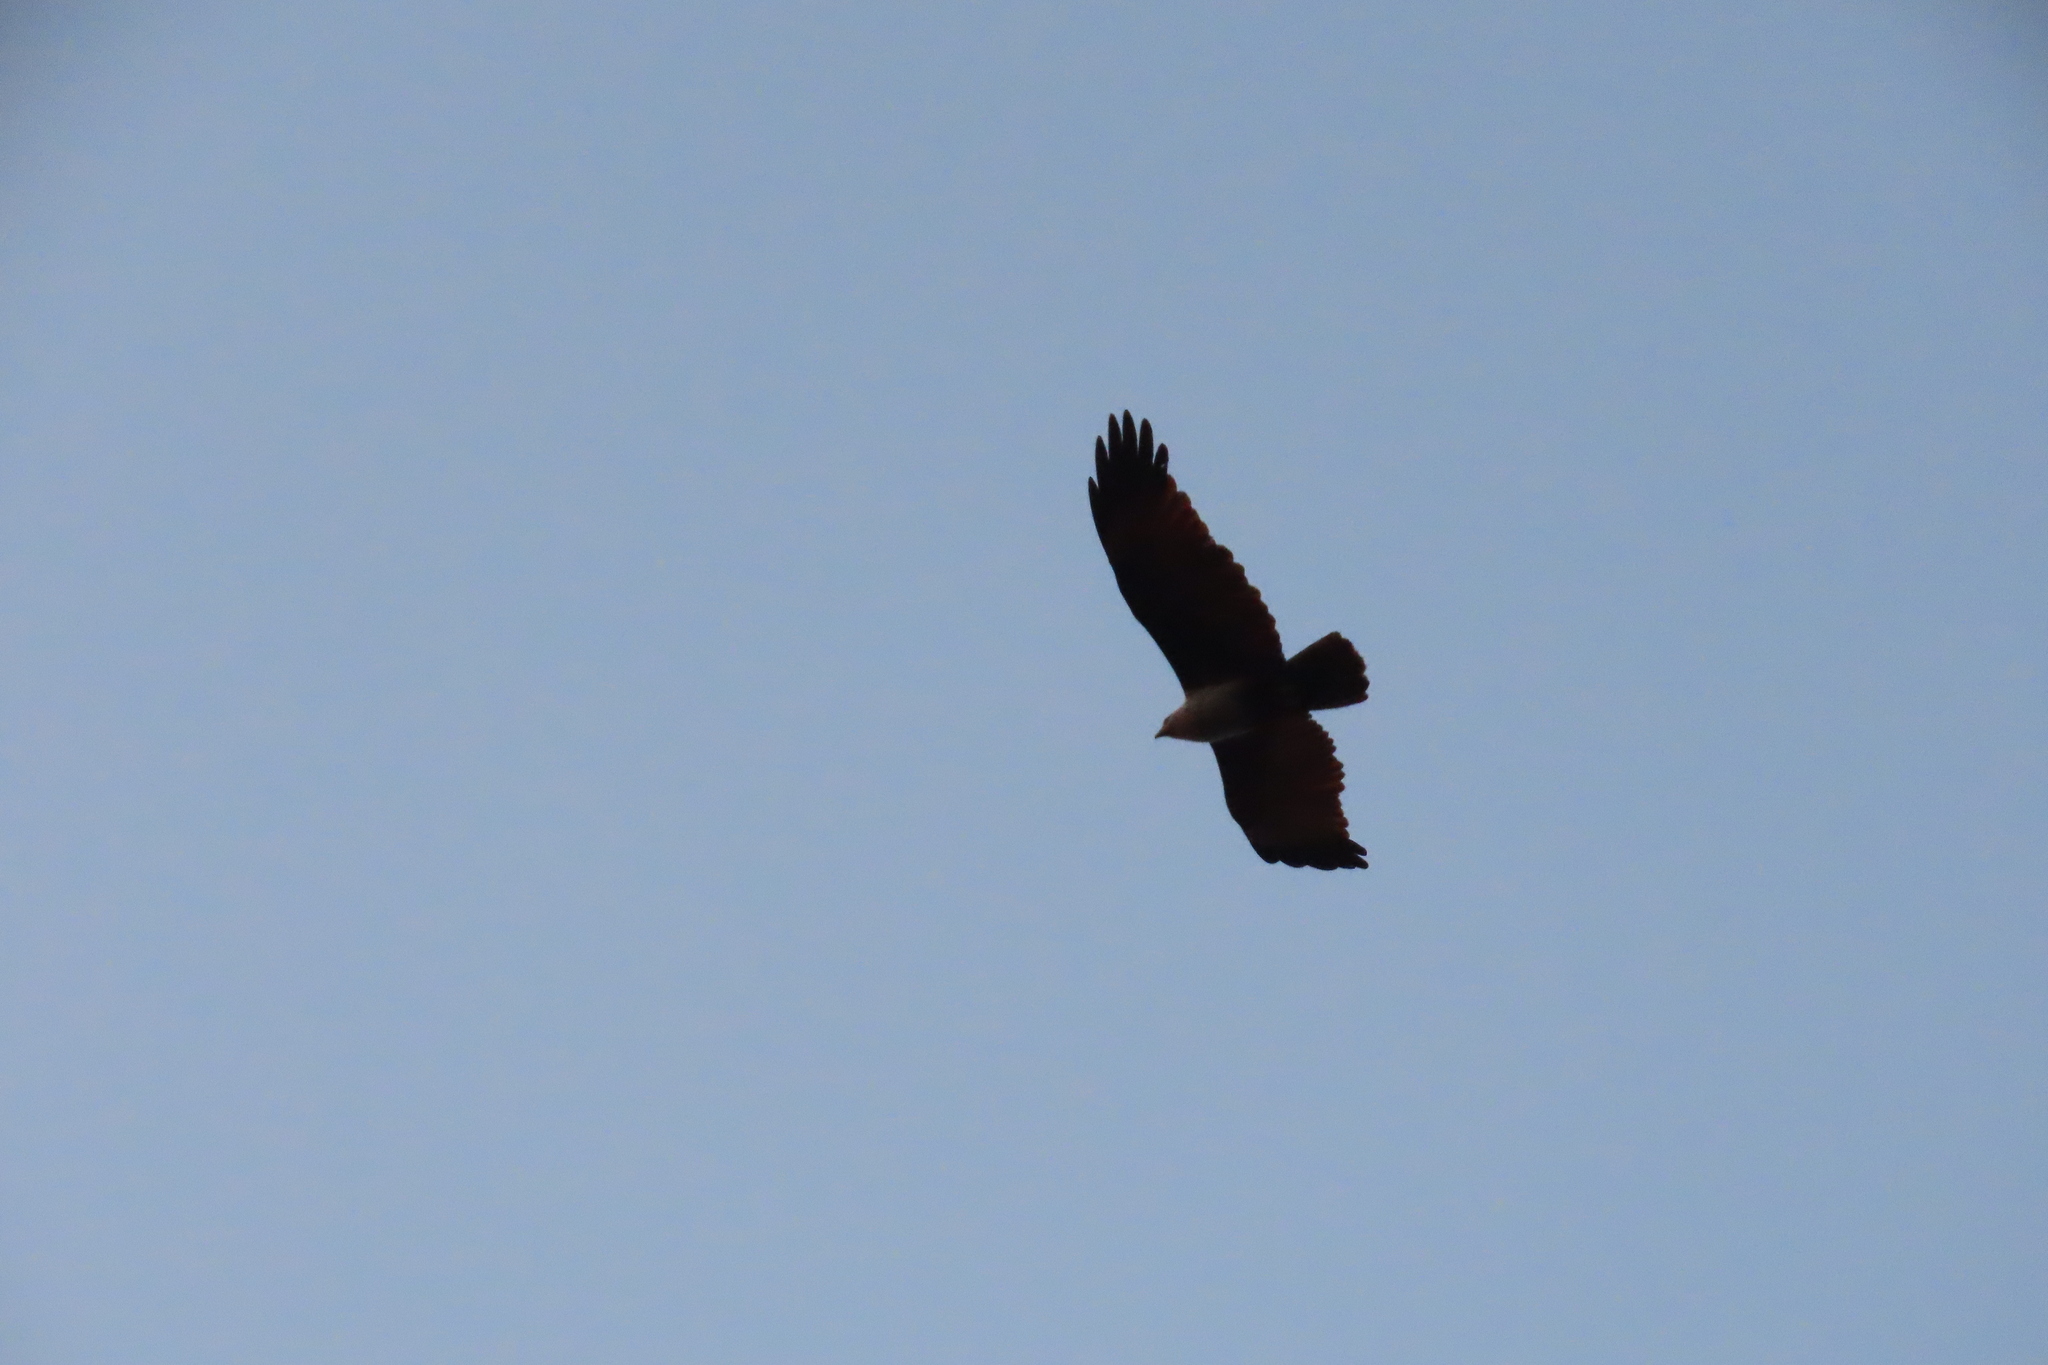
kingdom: Animalia
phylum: Chordata
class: Aves
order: Accipitriformes
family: Accipitridae
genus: Haliastur
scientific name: Haliastur indus
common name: Brahminy kite
